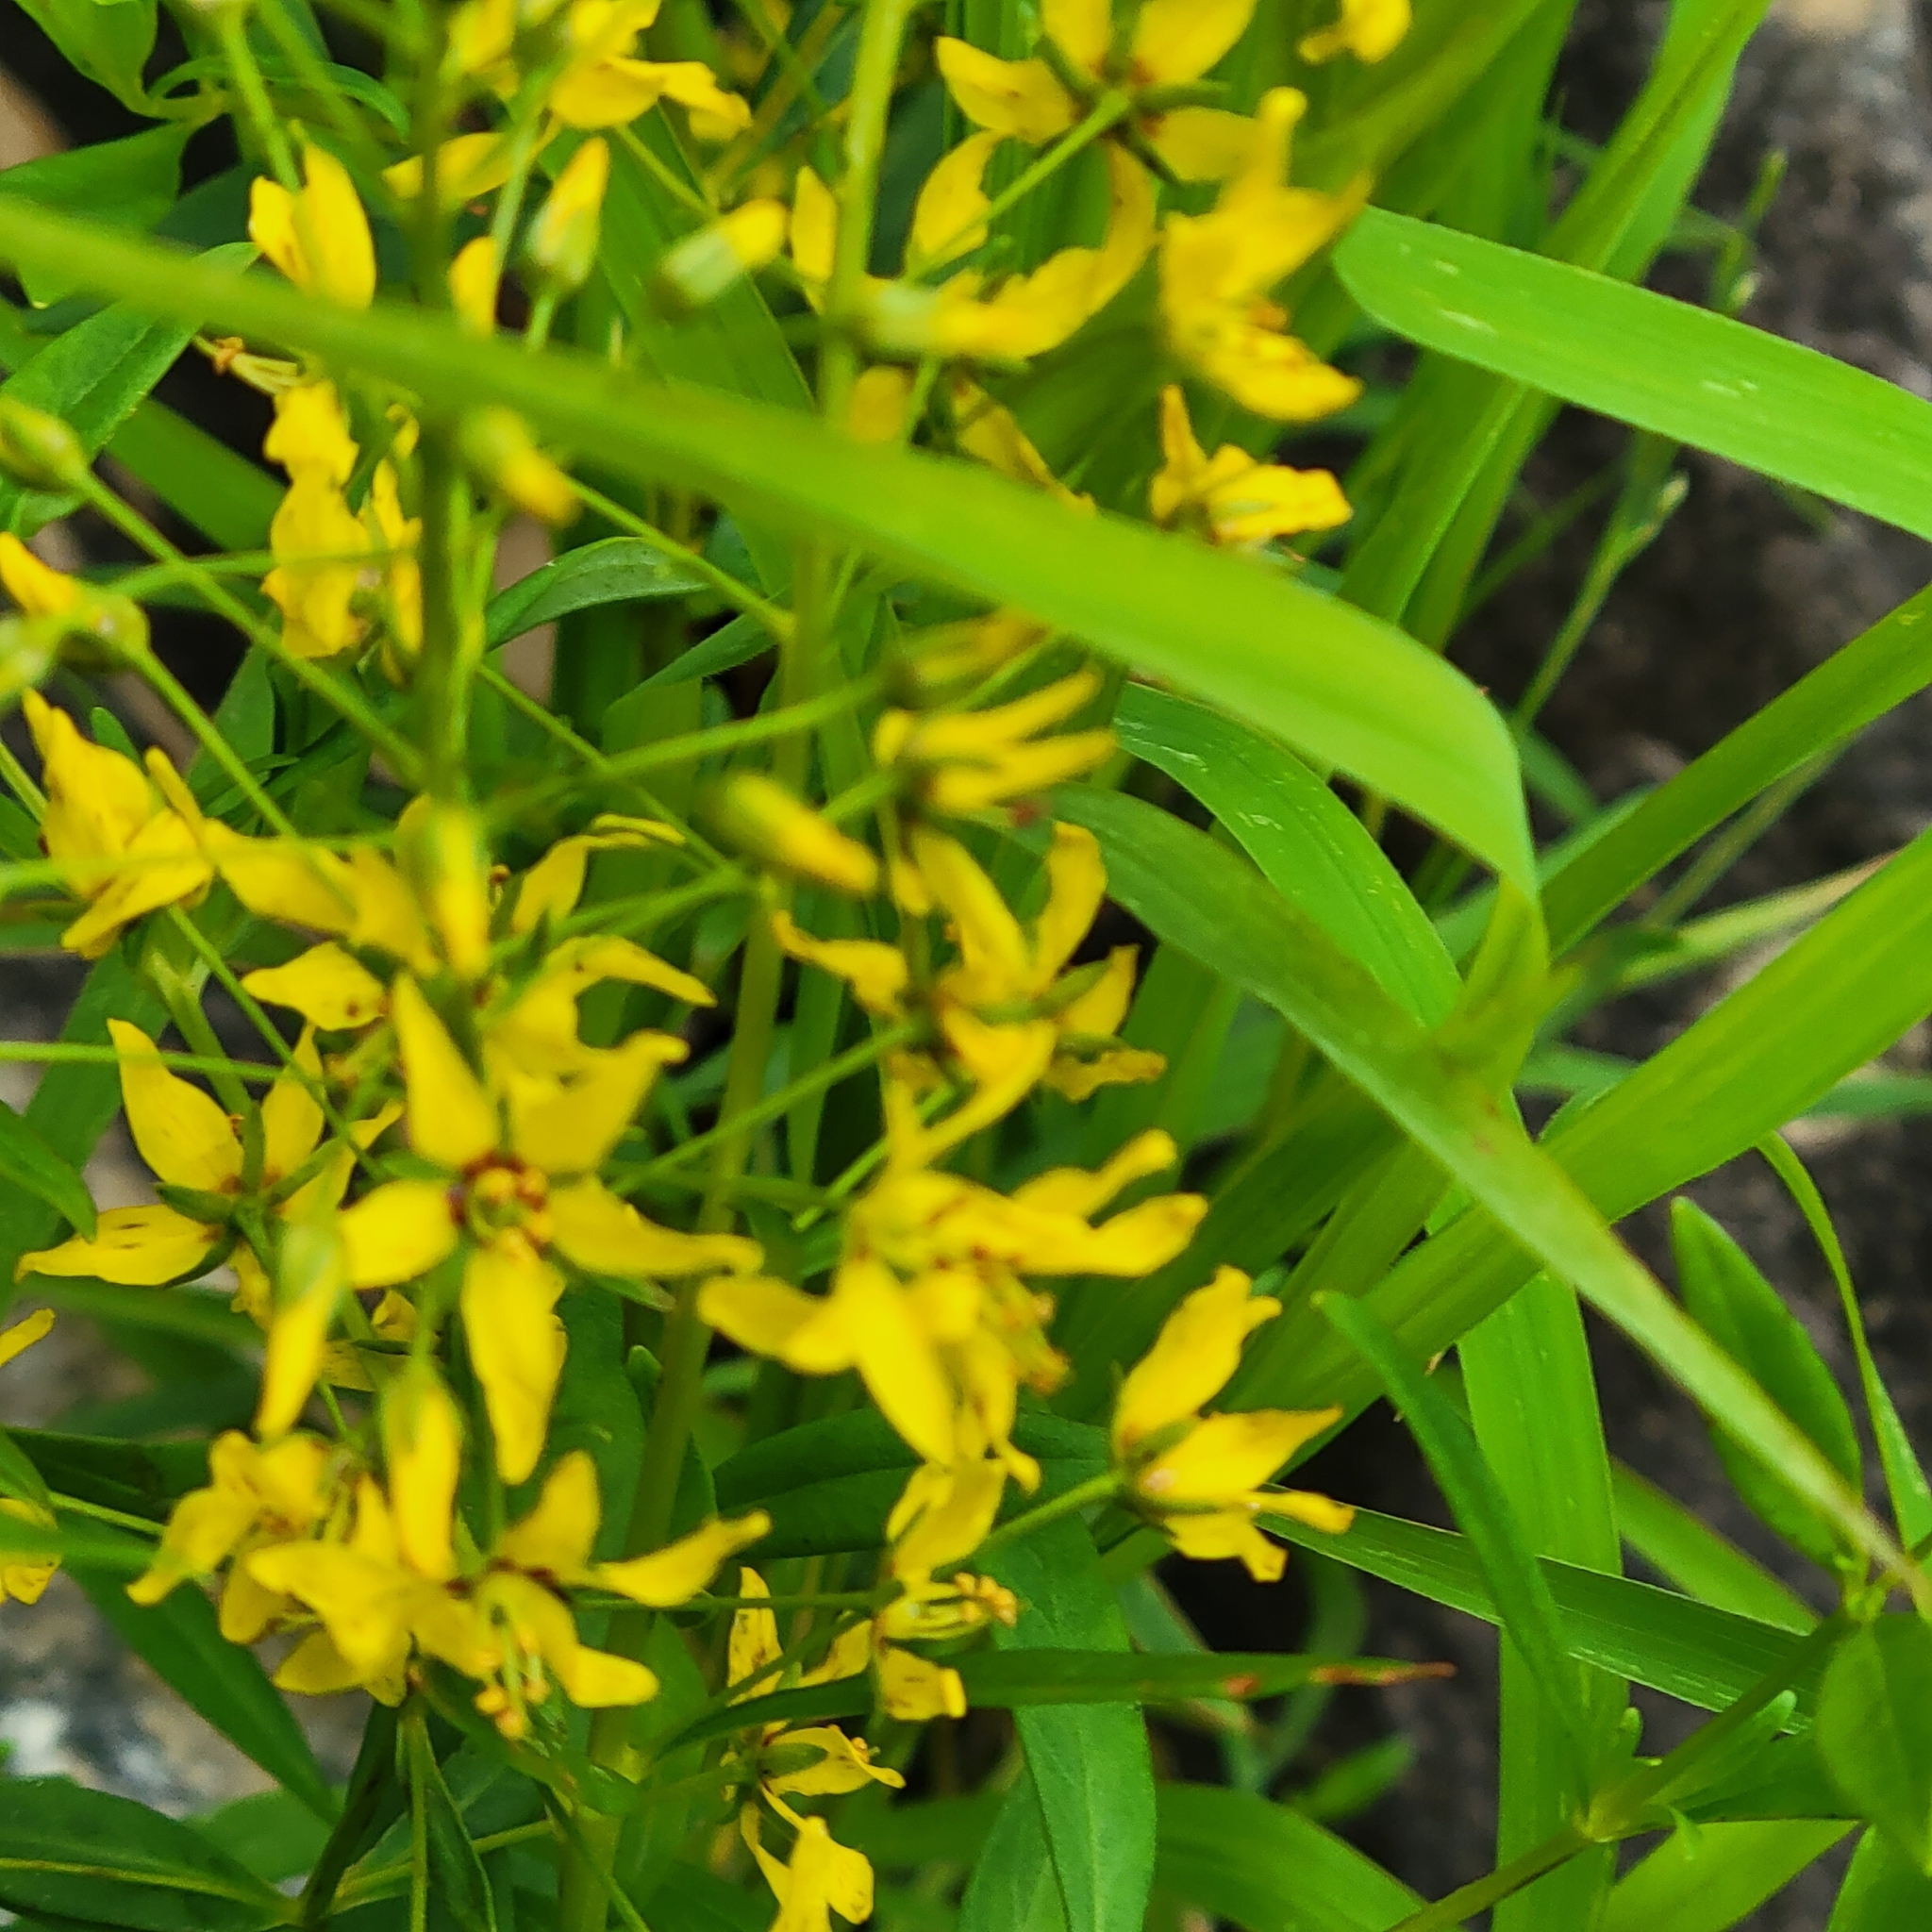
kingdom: Plantae
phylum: Tracheophyta
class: Magnoliopsida
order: Ericales
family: Primulaceae
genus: Lysimachia
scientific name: Lysimachia terrestris
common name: Lake loosestrife
